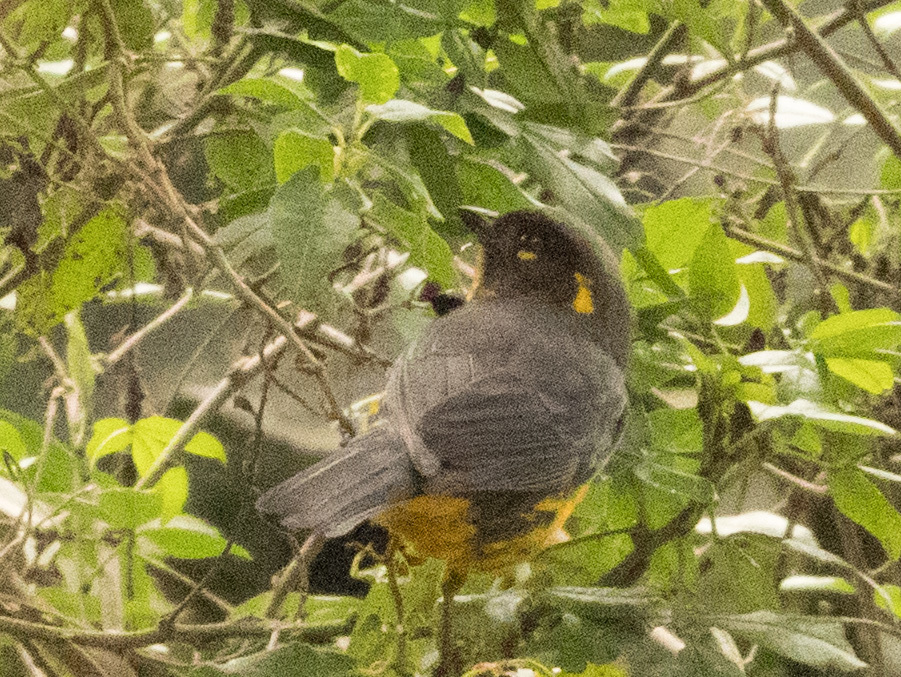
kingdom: Animalia
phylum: Chordata
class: Aves
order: Passeriformes
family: Thraupidae
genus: Anisognathus
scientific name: Anisognathus lacrymosus
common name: Lacrimose mountain-tanager
